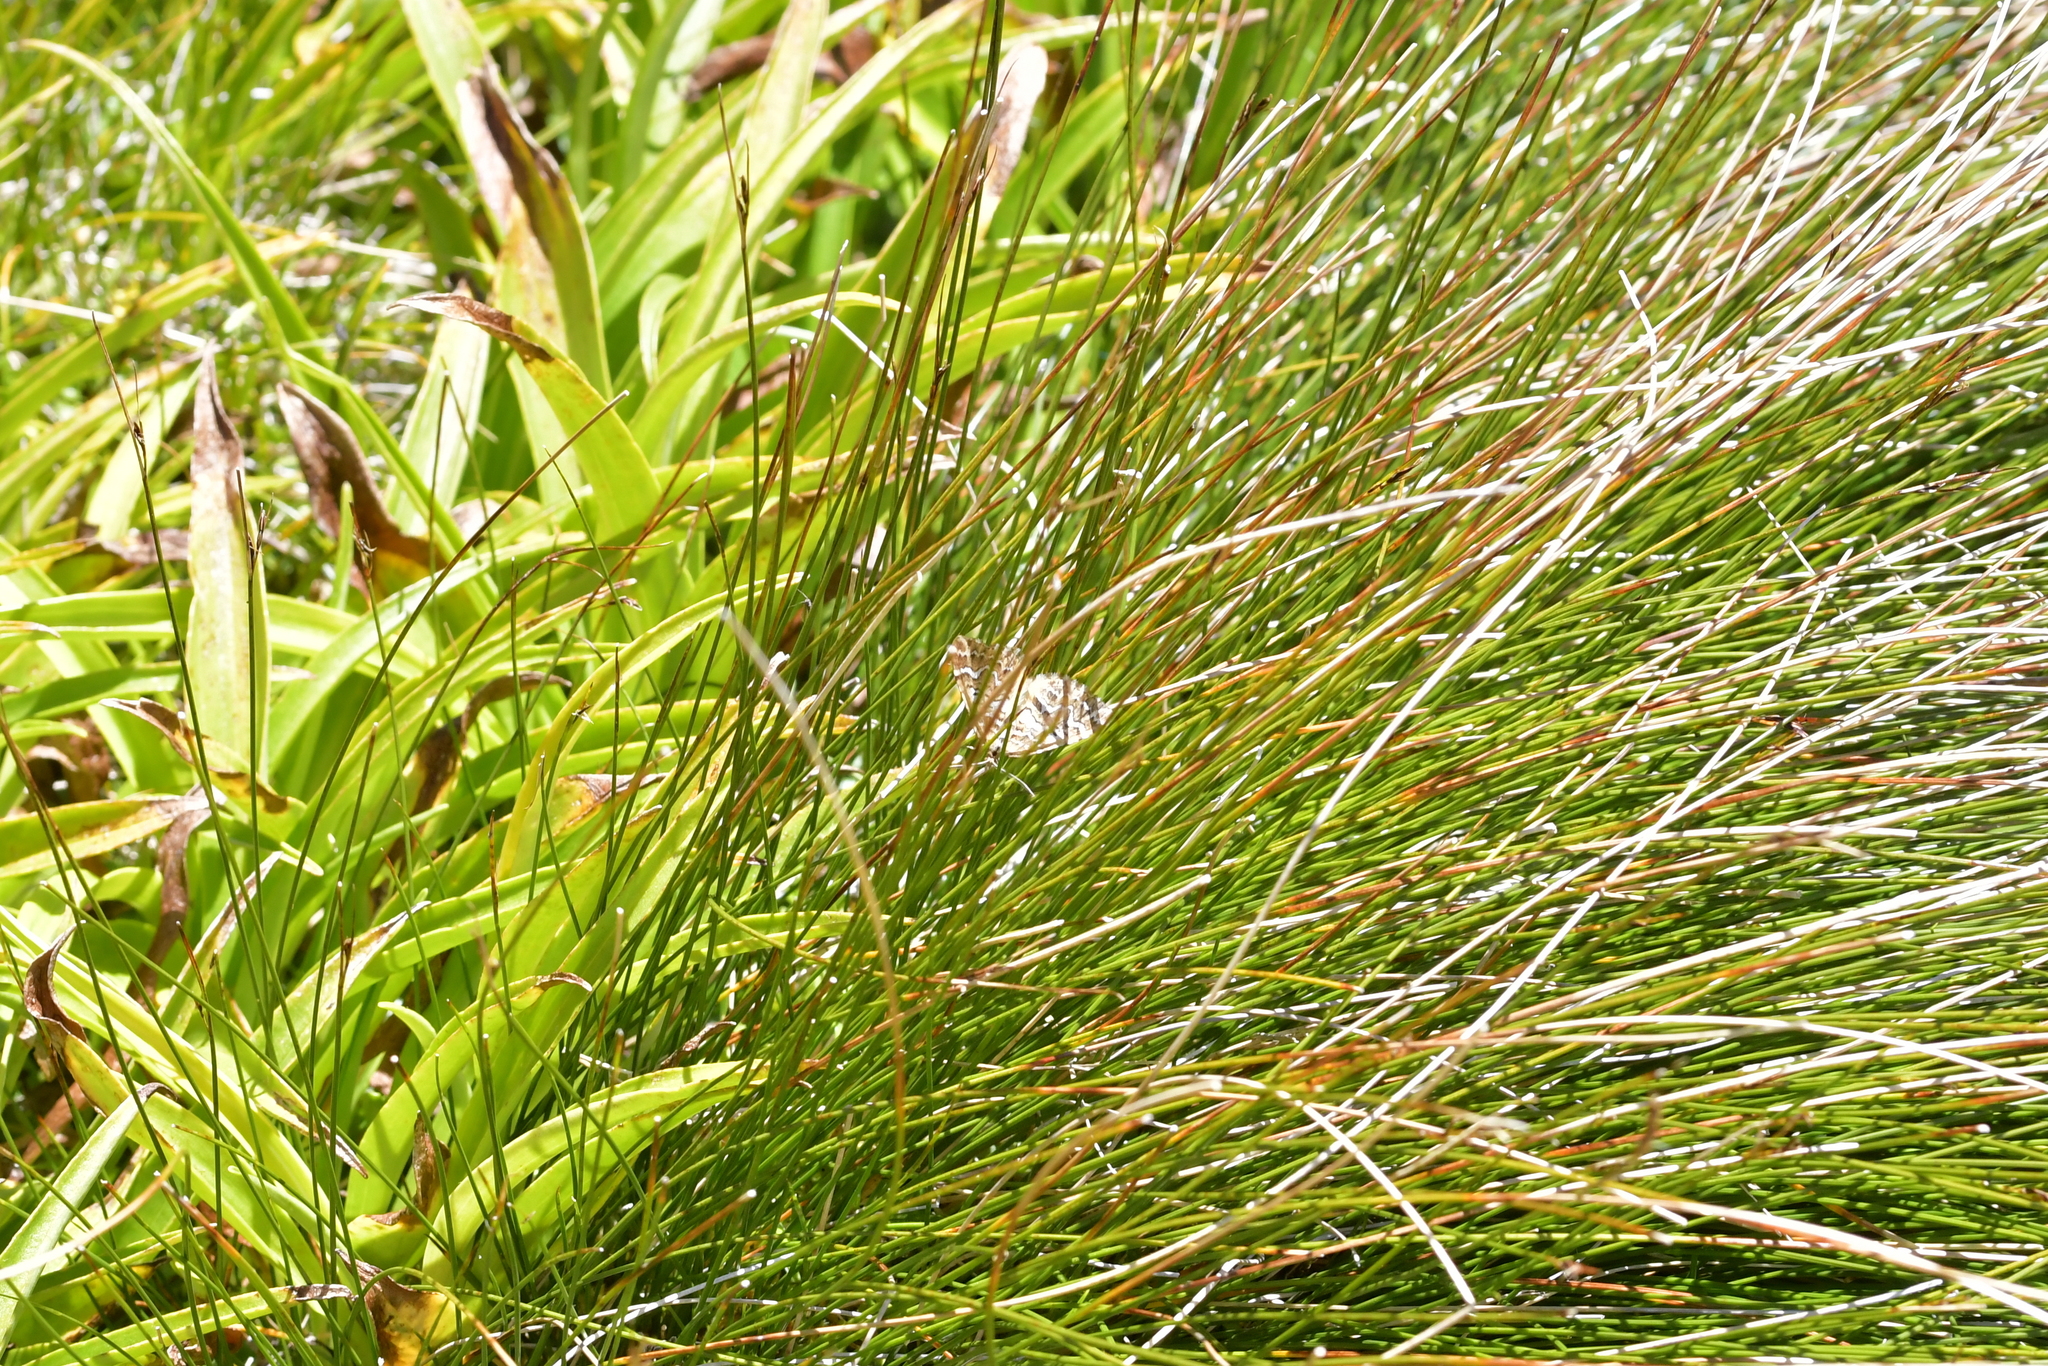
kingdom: Animalia
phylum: Arthropoda
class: Insecta
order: Lepidoptera
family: Geometridae
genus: Asaphodes
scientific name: Asaphodes clarata
